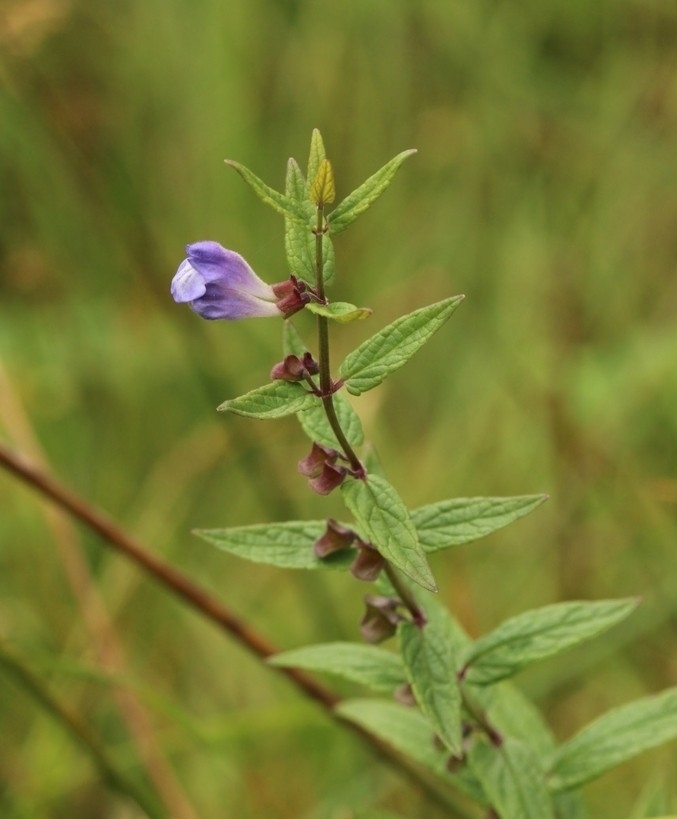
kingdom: Plantae
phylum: Tracheophyta
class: Magnoliopsida
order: Lamiales
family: Lamiaceae
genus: Scutellaria
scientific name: Scutellaria galericulata
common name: Skullcap
